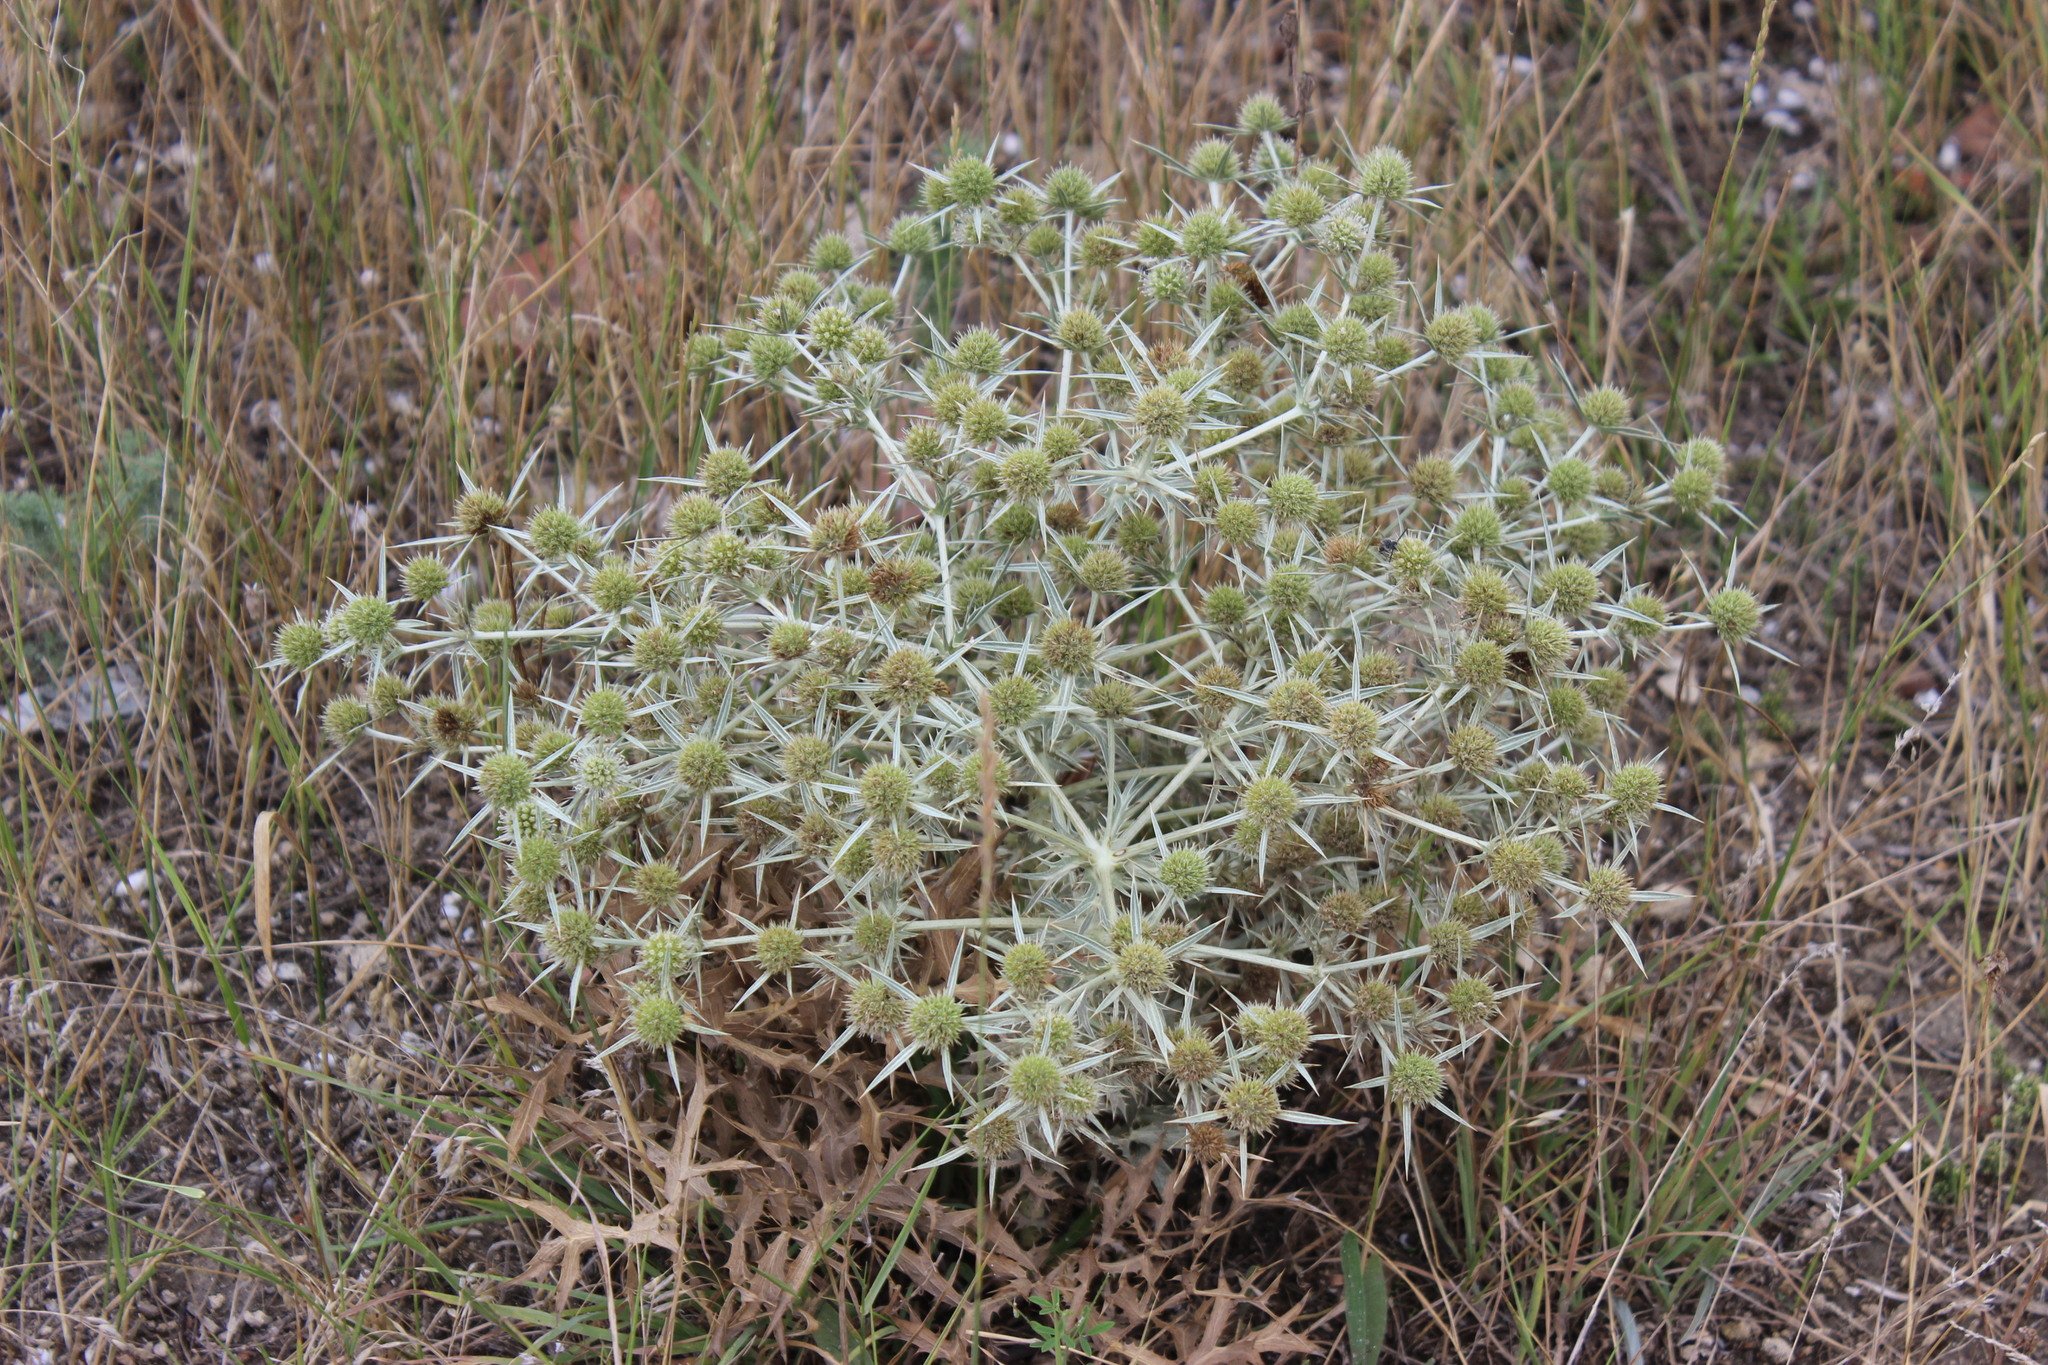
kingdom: Plantae
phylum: Tracheophyta
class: Magnoliopsida
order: Apiales
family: Apiaceae
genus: Eryngium
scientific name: Eryngium campestre
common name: Field eryngo
